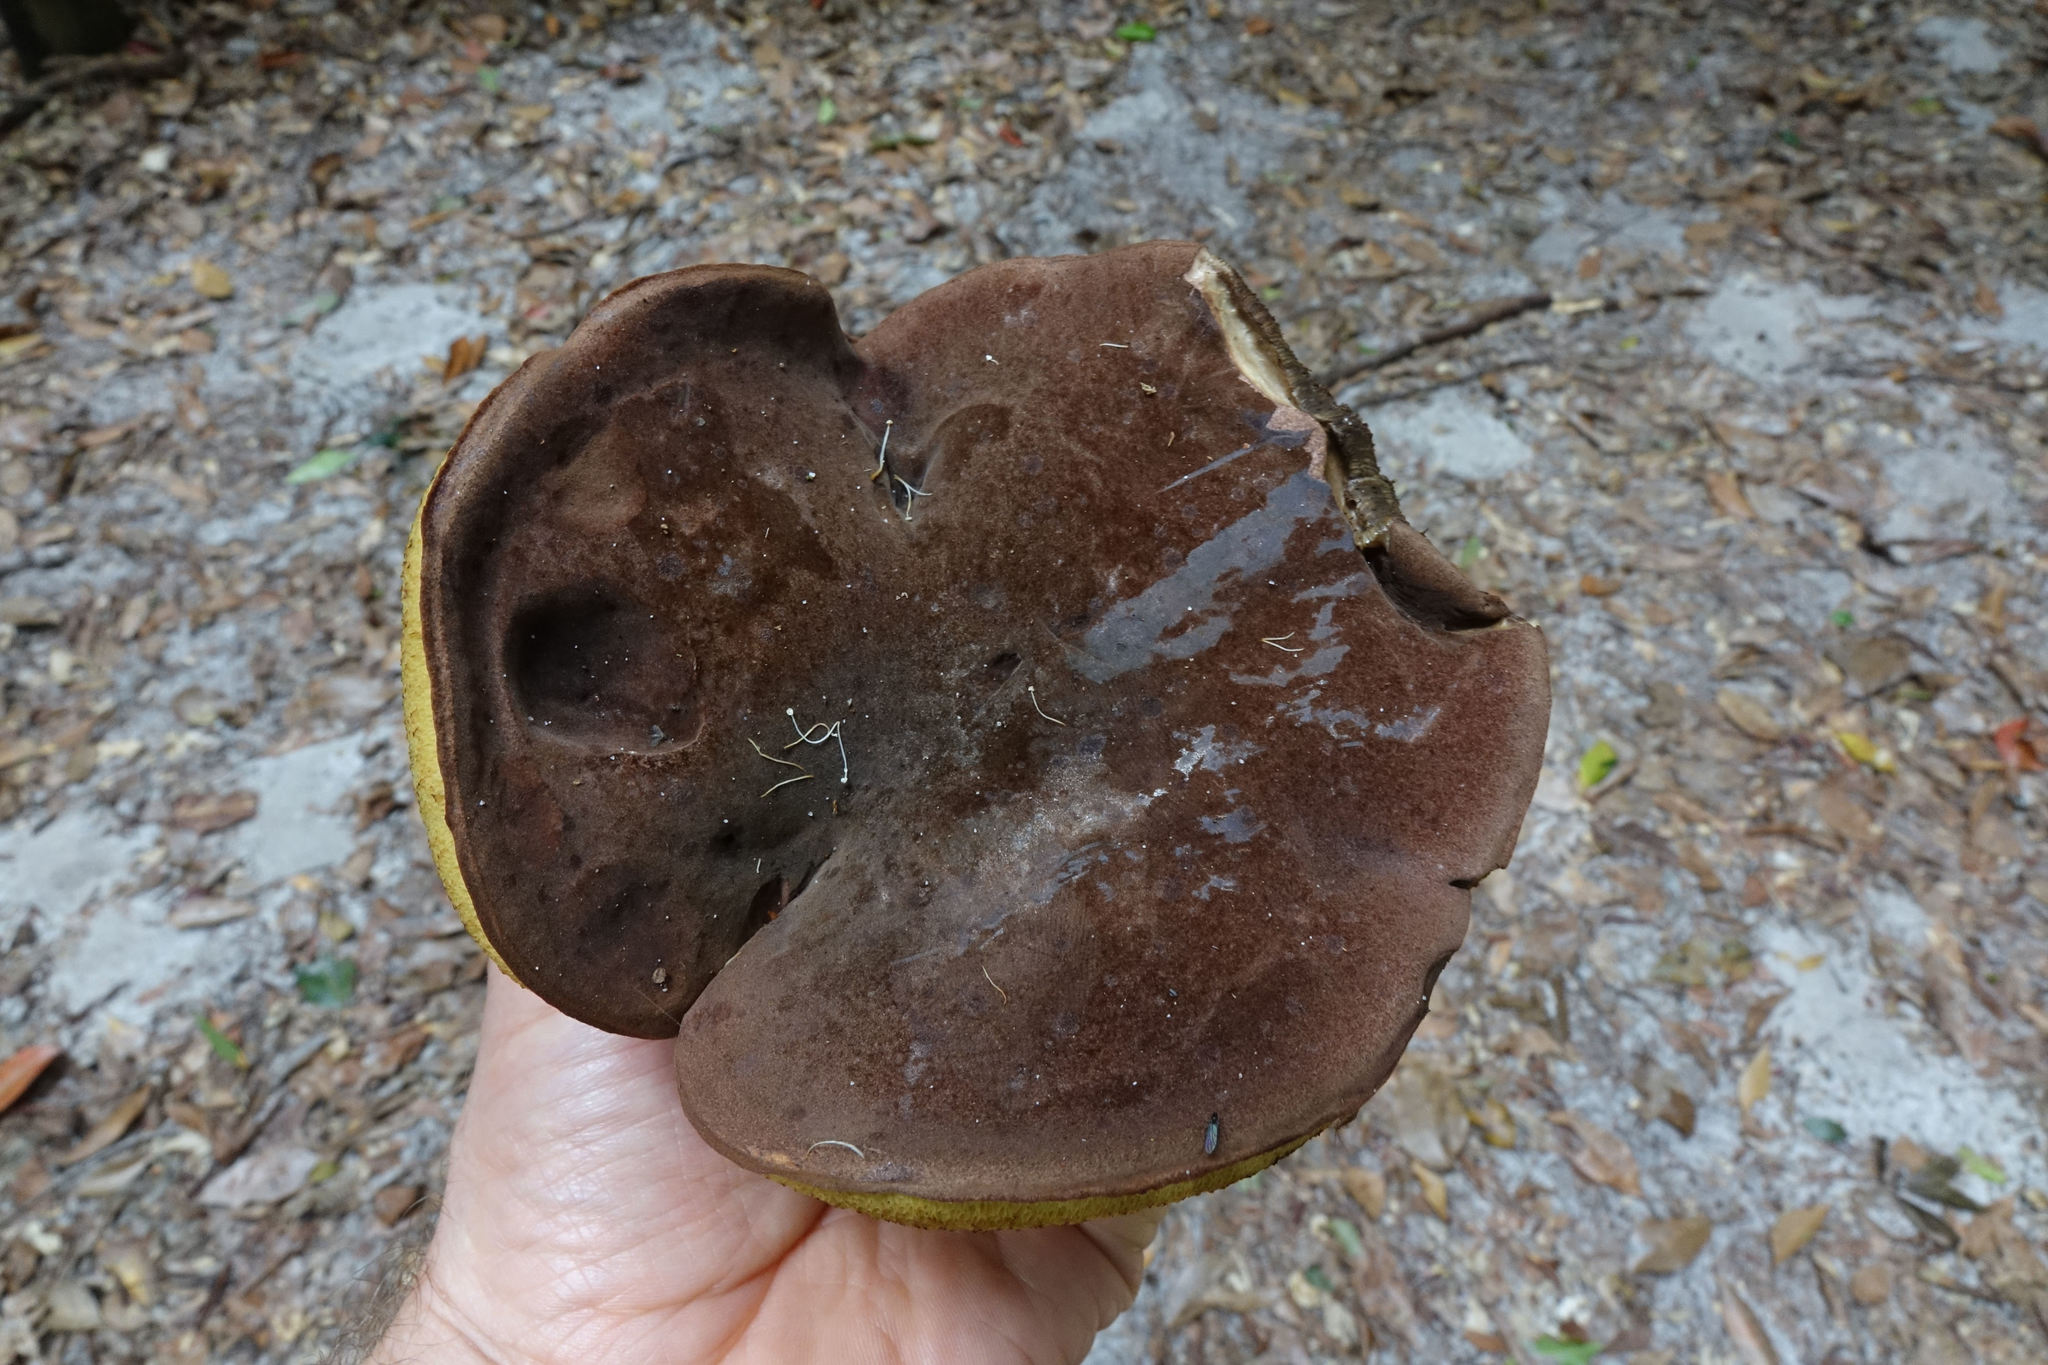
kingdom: Fungi
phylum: Basidiomycota
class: Agaricomycetes
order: Boletales
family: Boletinellaceae
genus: Phlebopus
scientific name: Phlebopus marginatus
